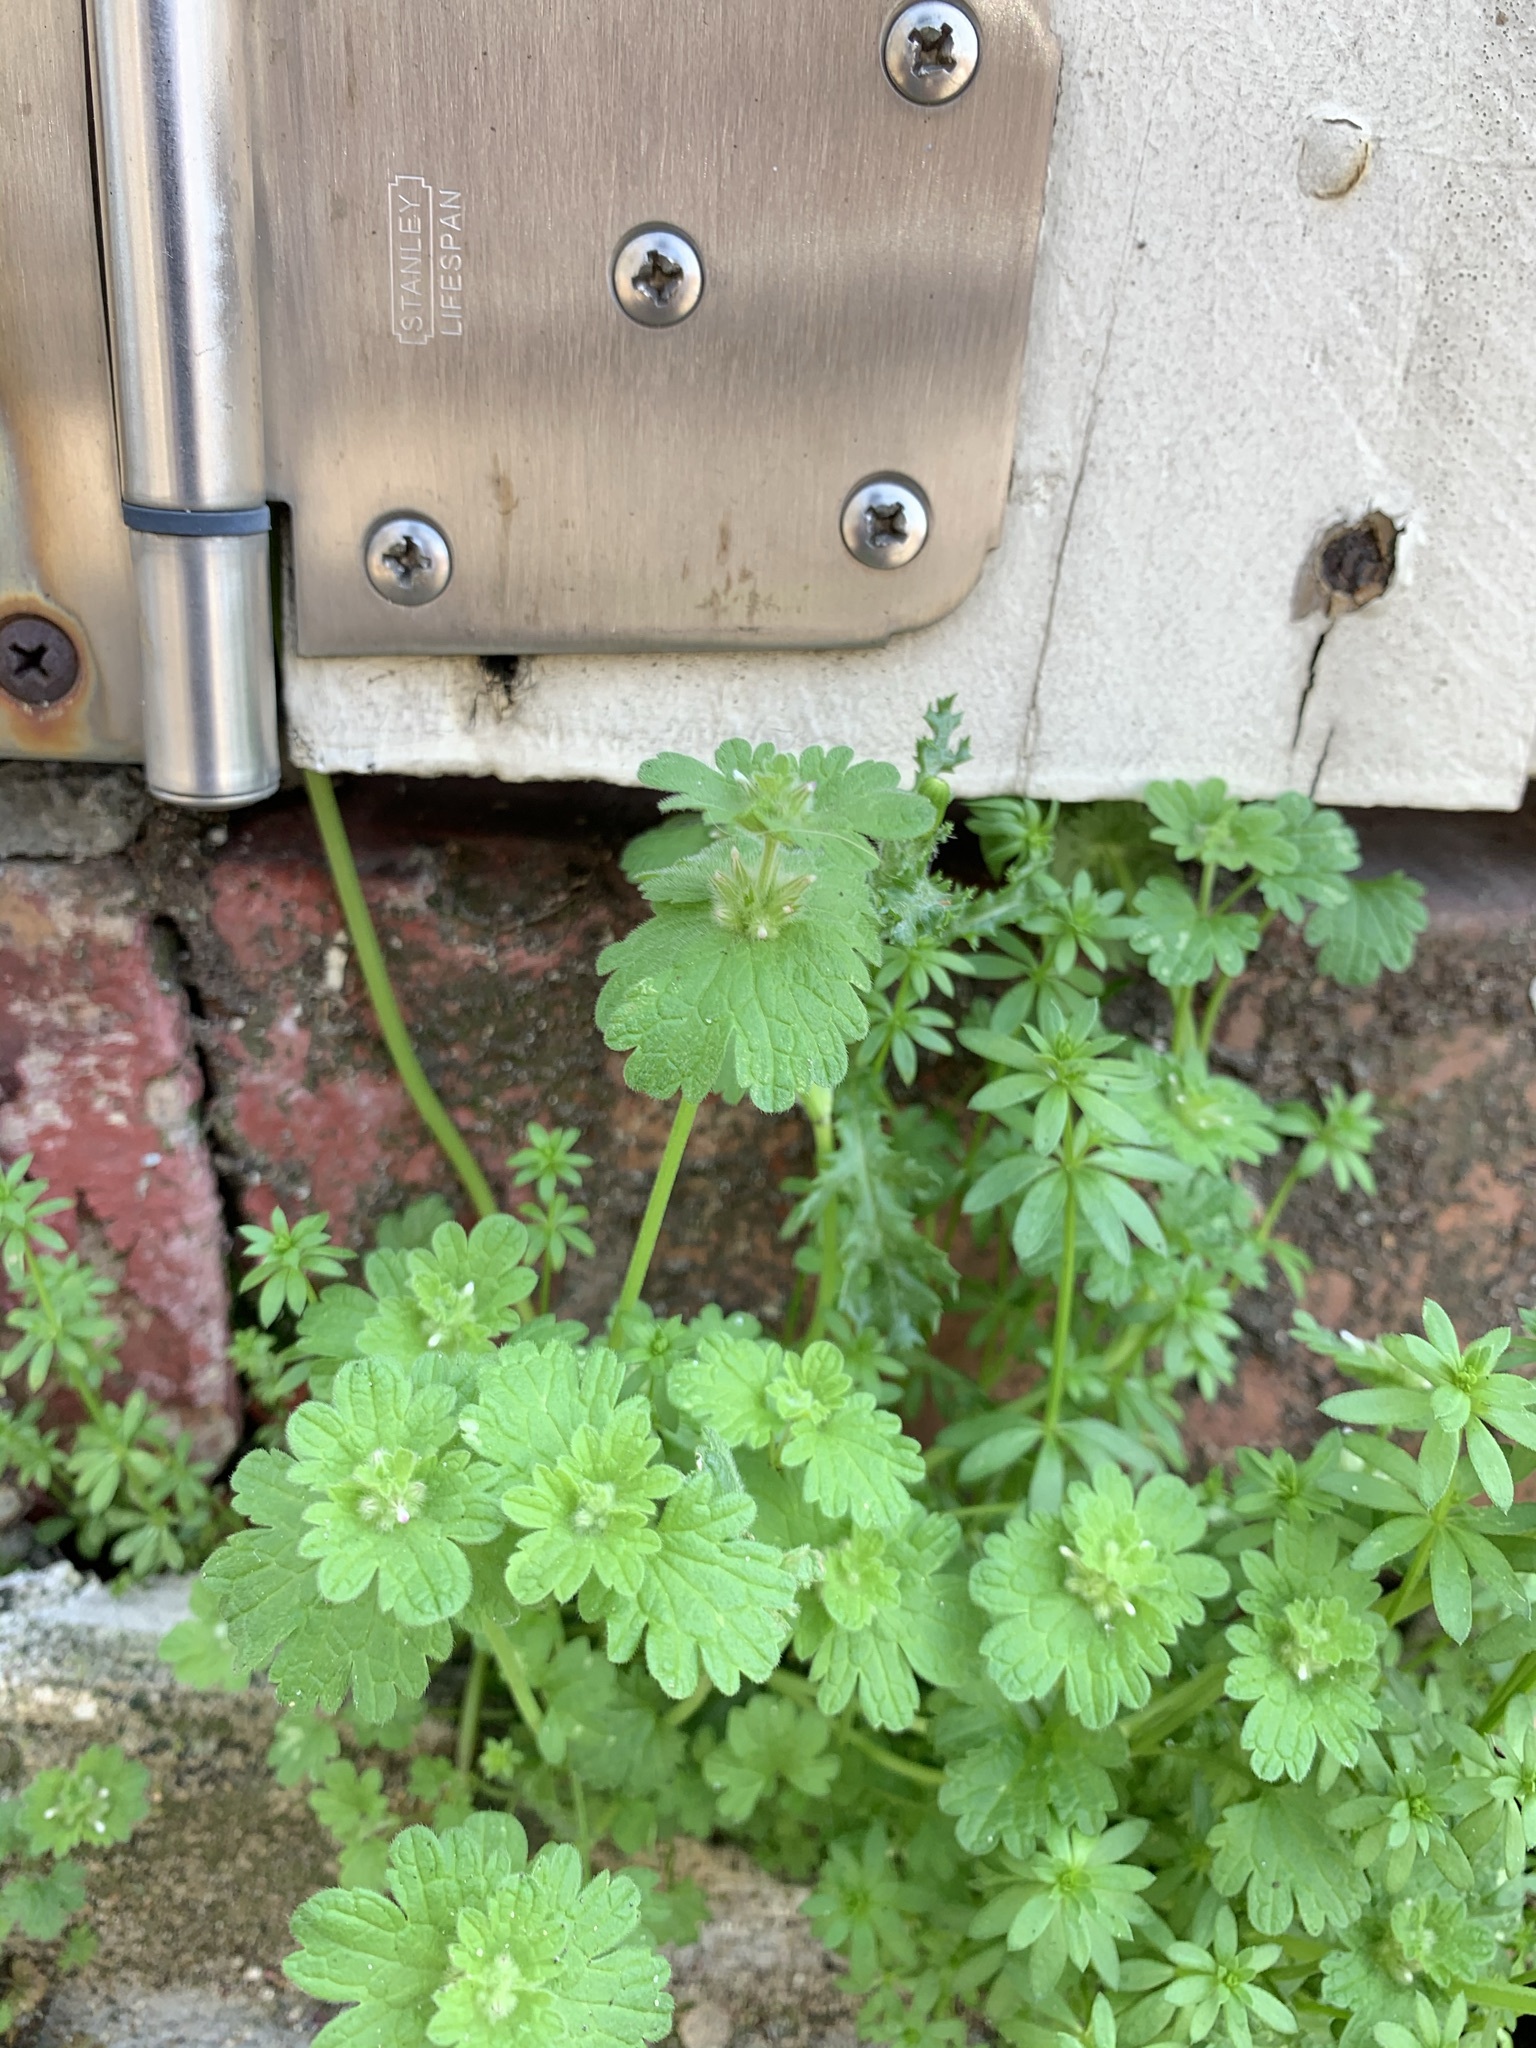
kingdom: Plantae
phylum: Tracheophyta
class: Magnoliopsida
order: Lamiales
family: Lamiaceae
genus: Lamium
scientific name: Lamium amplexicaule
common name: Henbit dead-nettle
